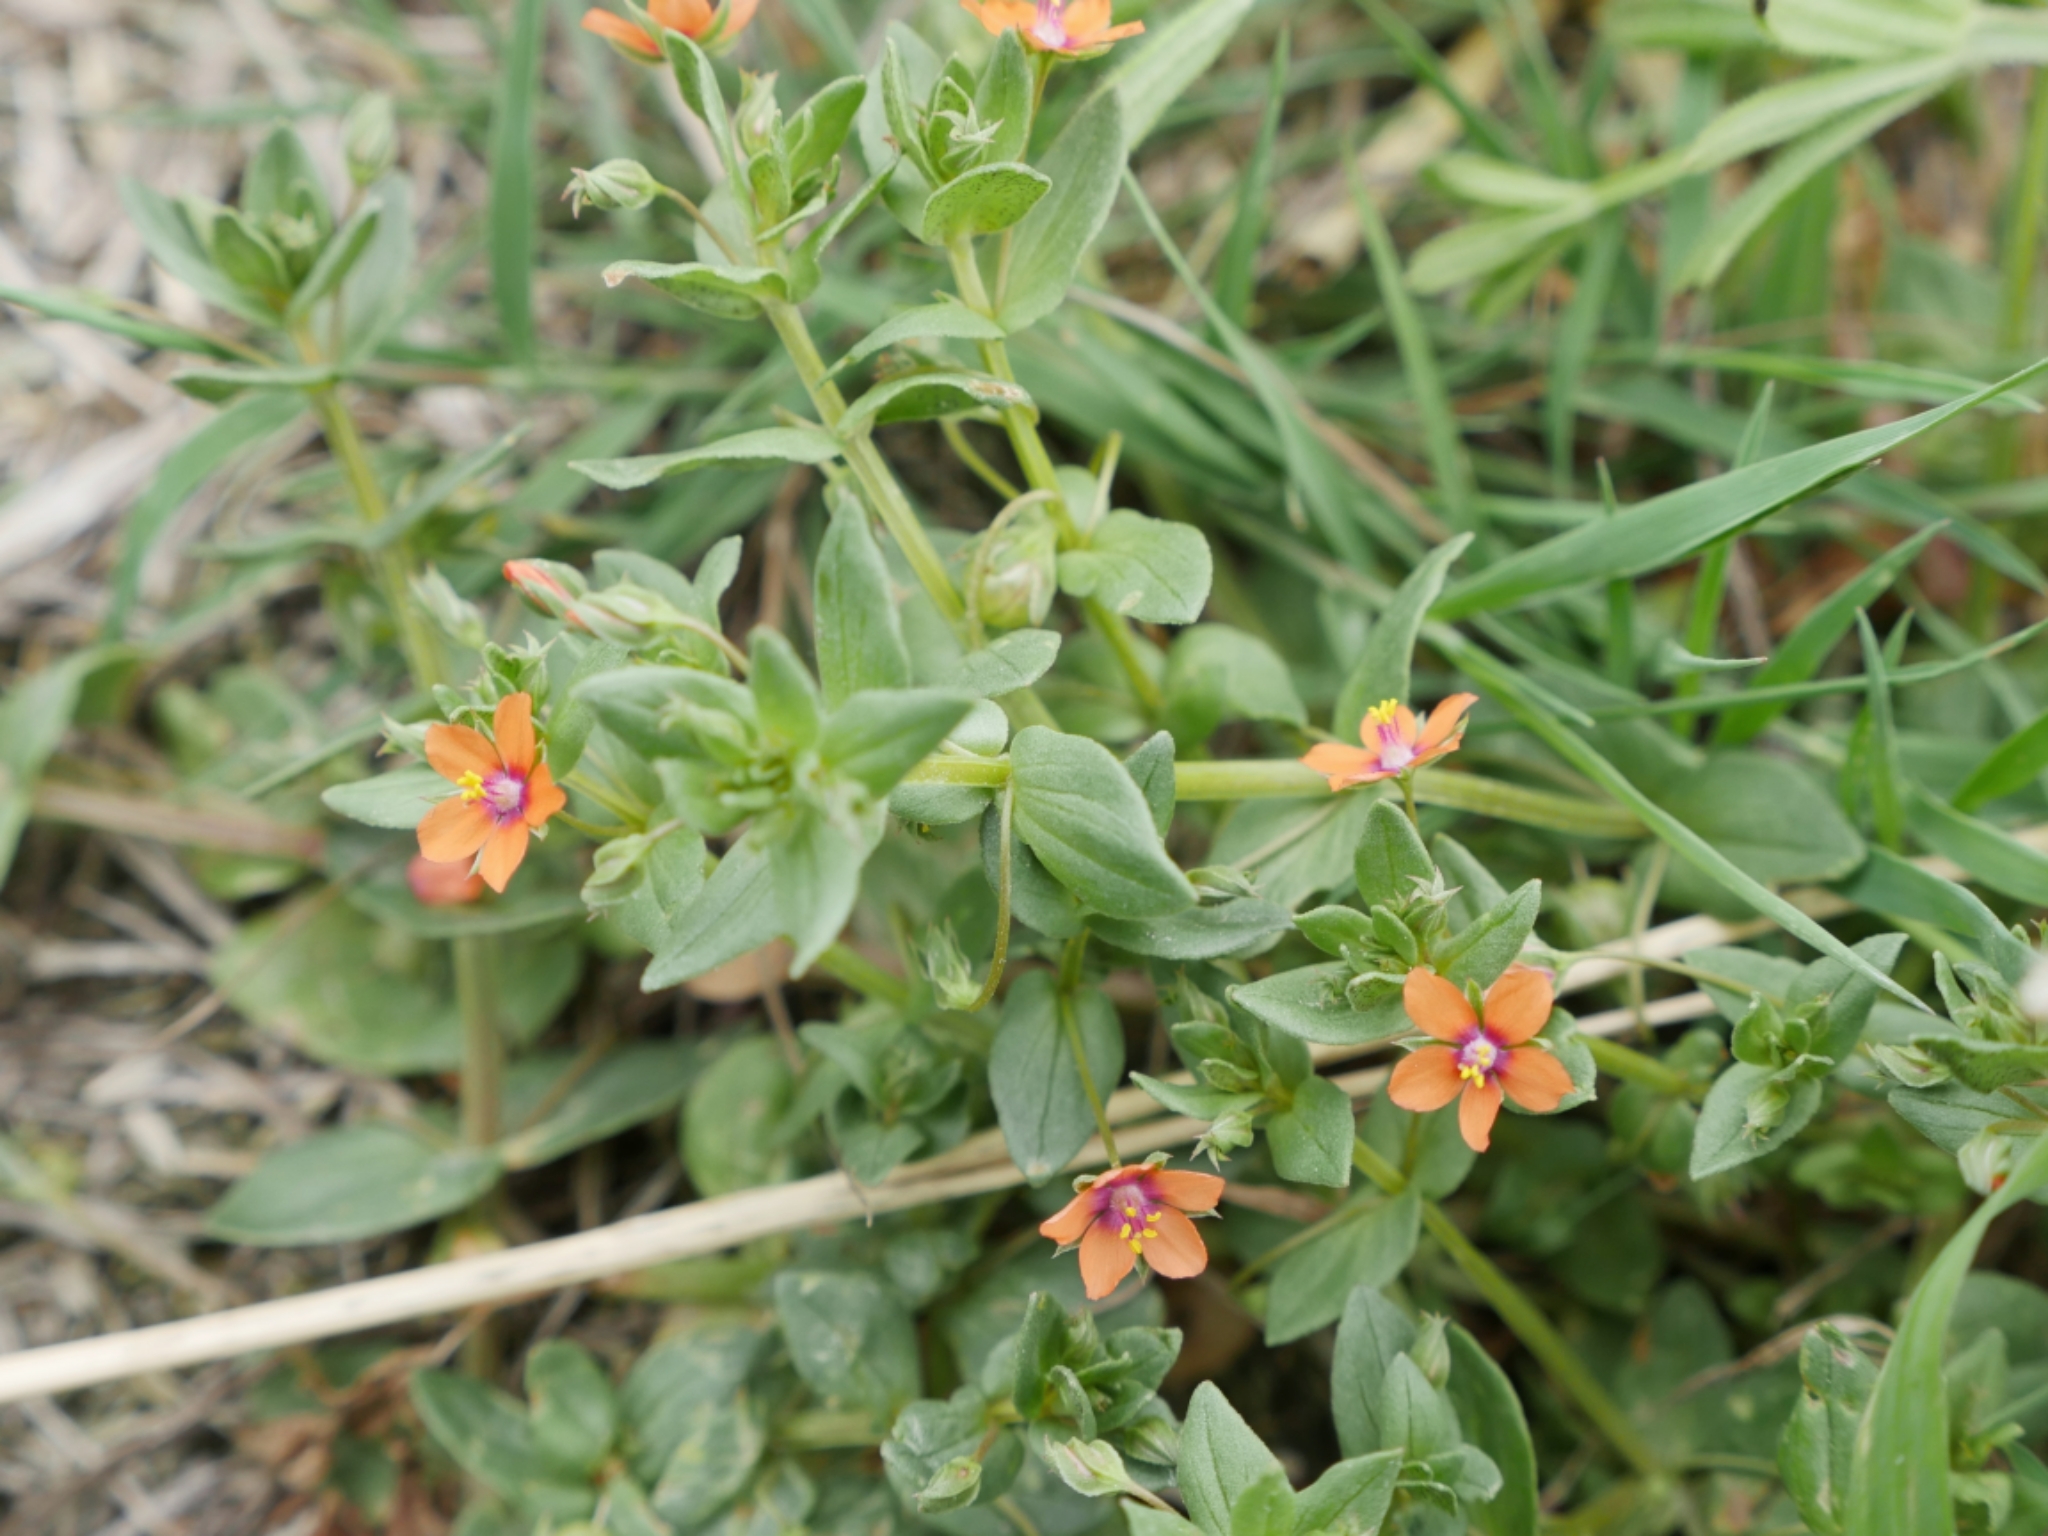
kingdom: Plantae
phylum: Tracheophyta
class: Magnoliopsida
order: Ericales
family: Primulaceae
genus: Lysimachia
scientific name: Lysimachia arvensis
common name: Scarlet pimpernel
